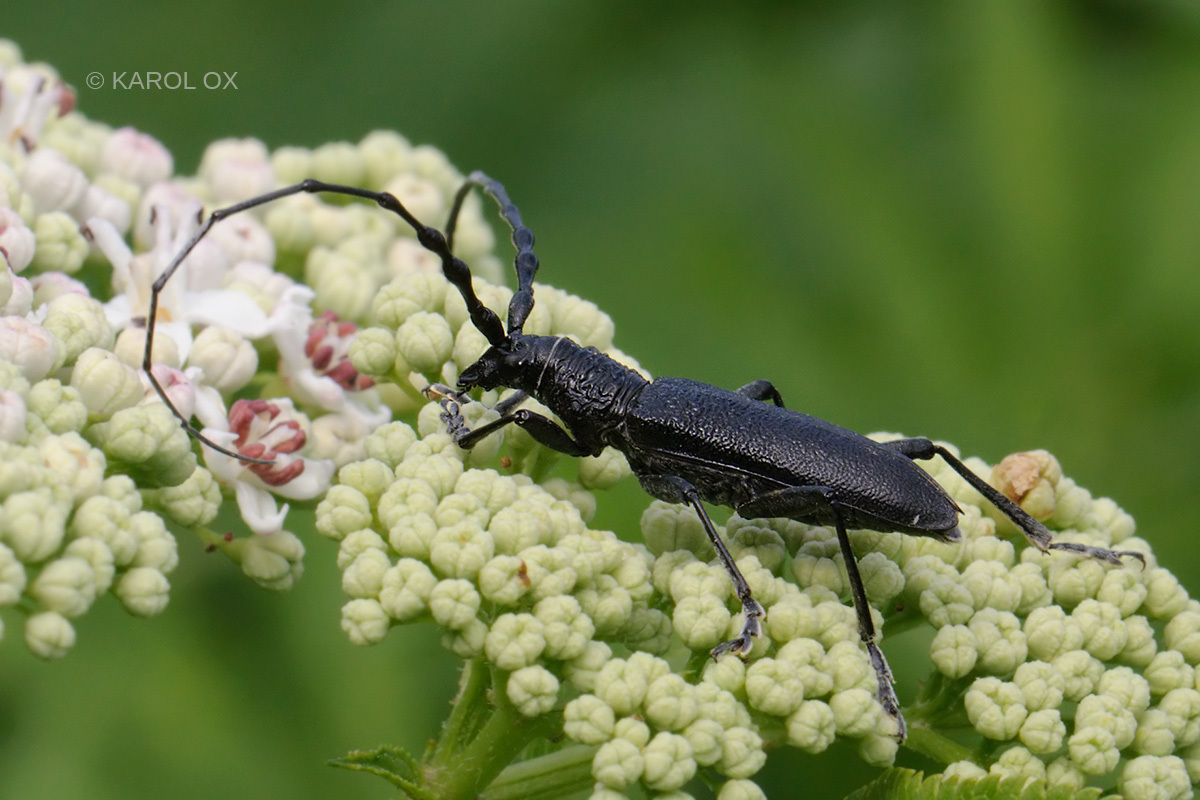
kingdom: Animalia
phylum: Arthropoda
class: Insecta
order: Coleoptera
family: Cerambycidae
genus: Cerambyx
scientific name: Cerambyx scopolii
